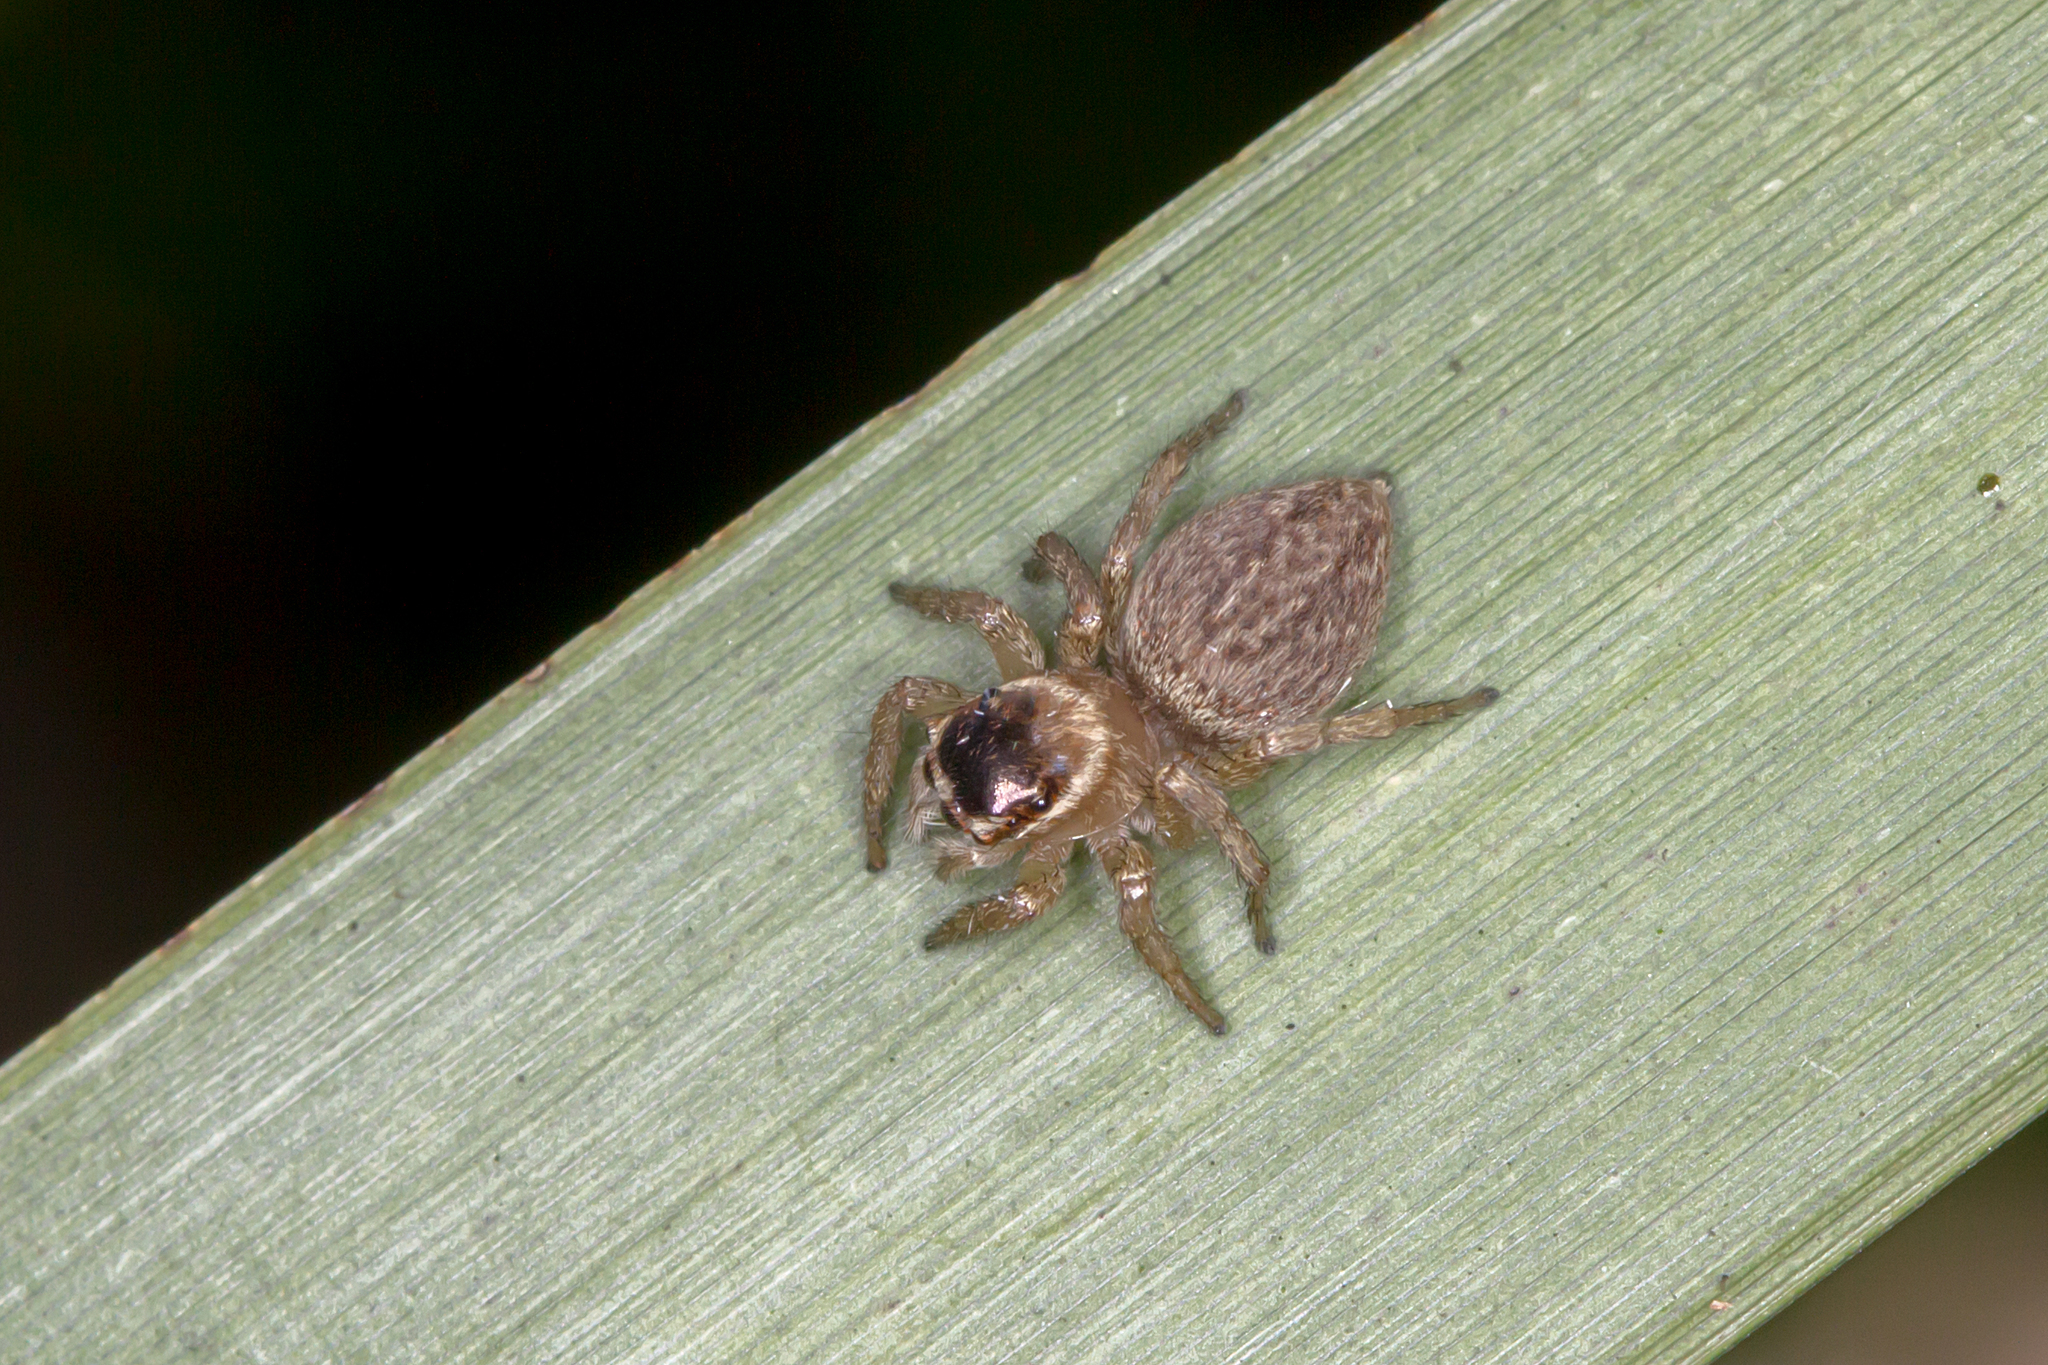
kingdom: Animalia
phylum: Arthropoda
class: Arachnida
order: Araneae
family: Salticidae
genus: Maratus
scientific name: Maratus griseus
